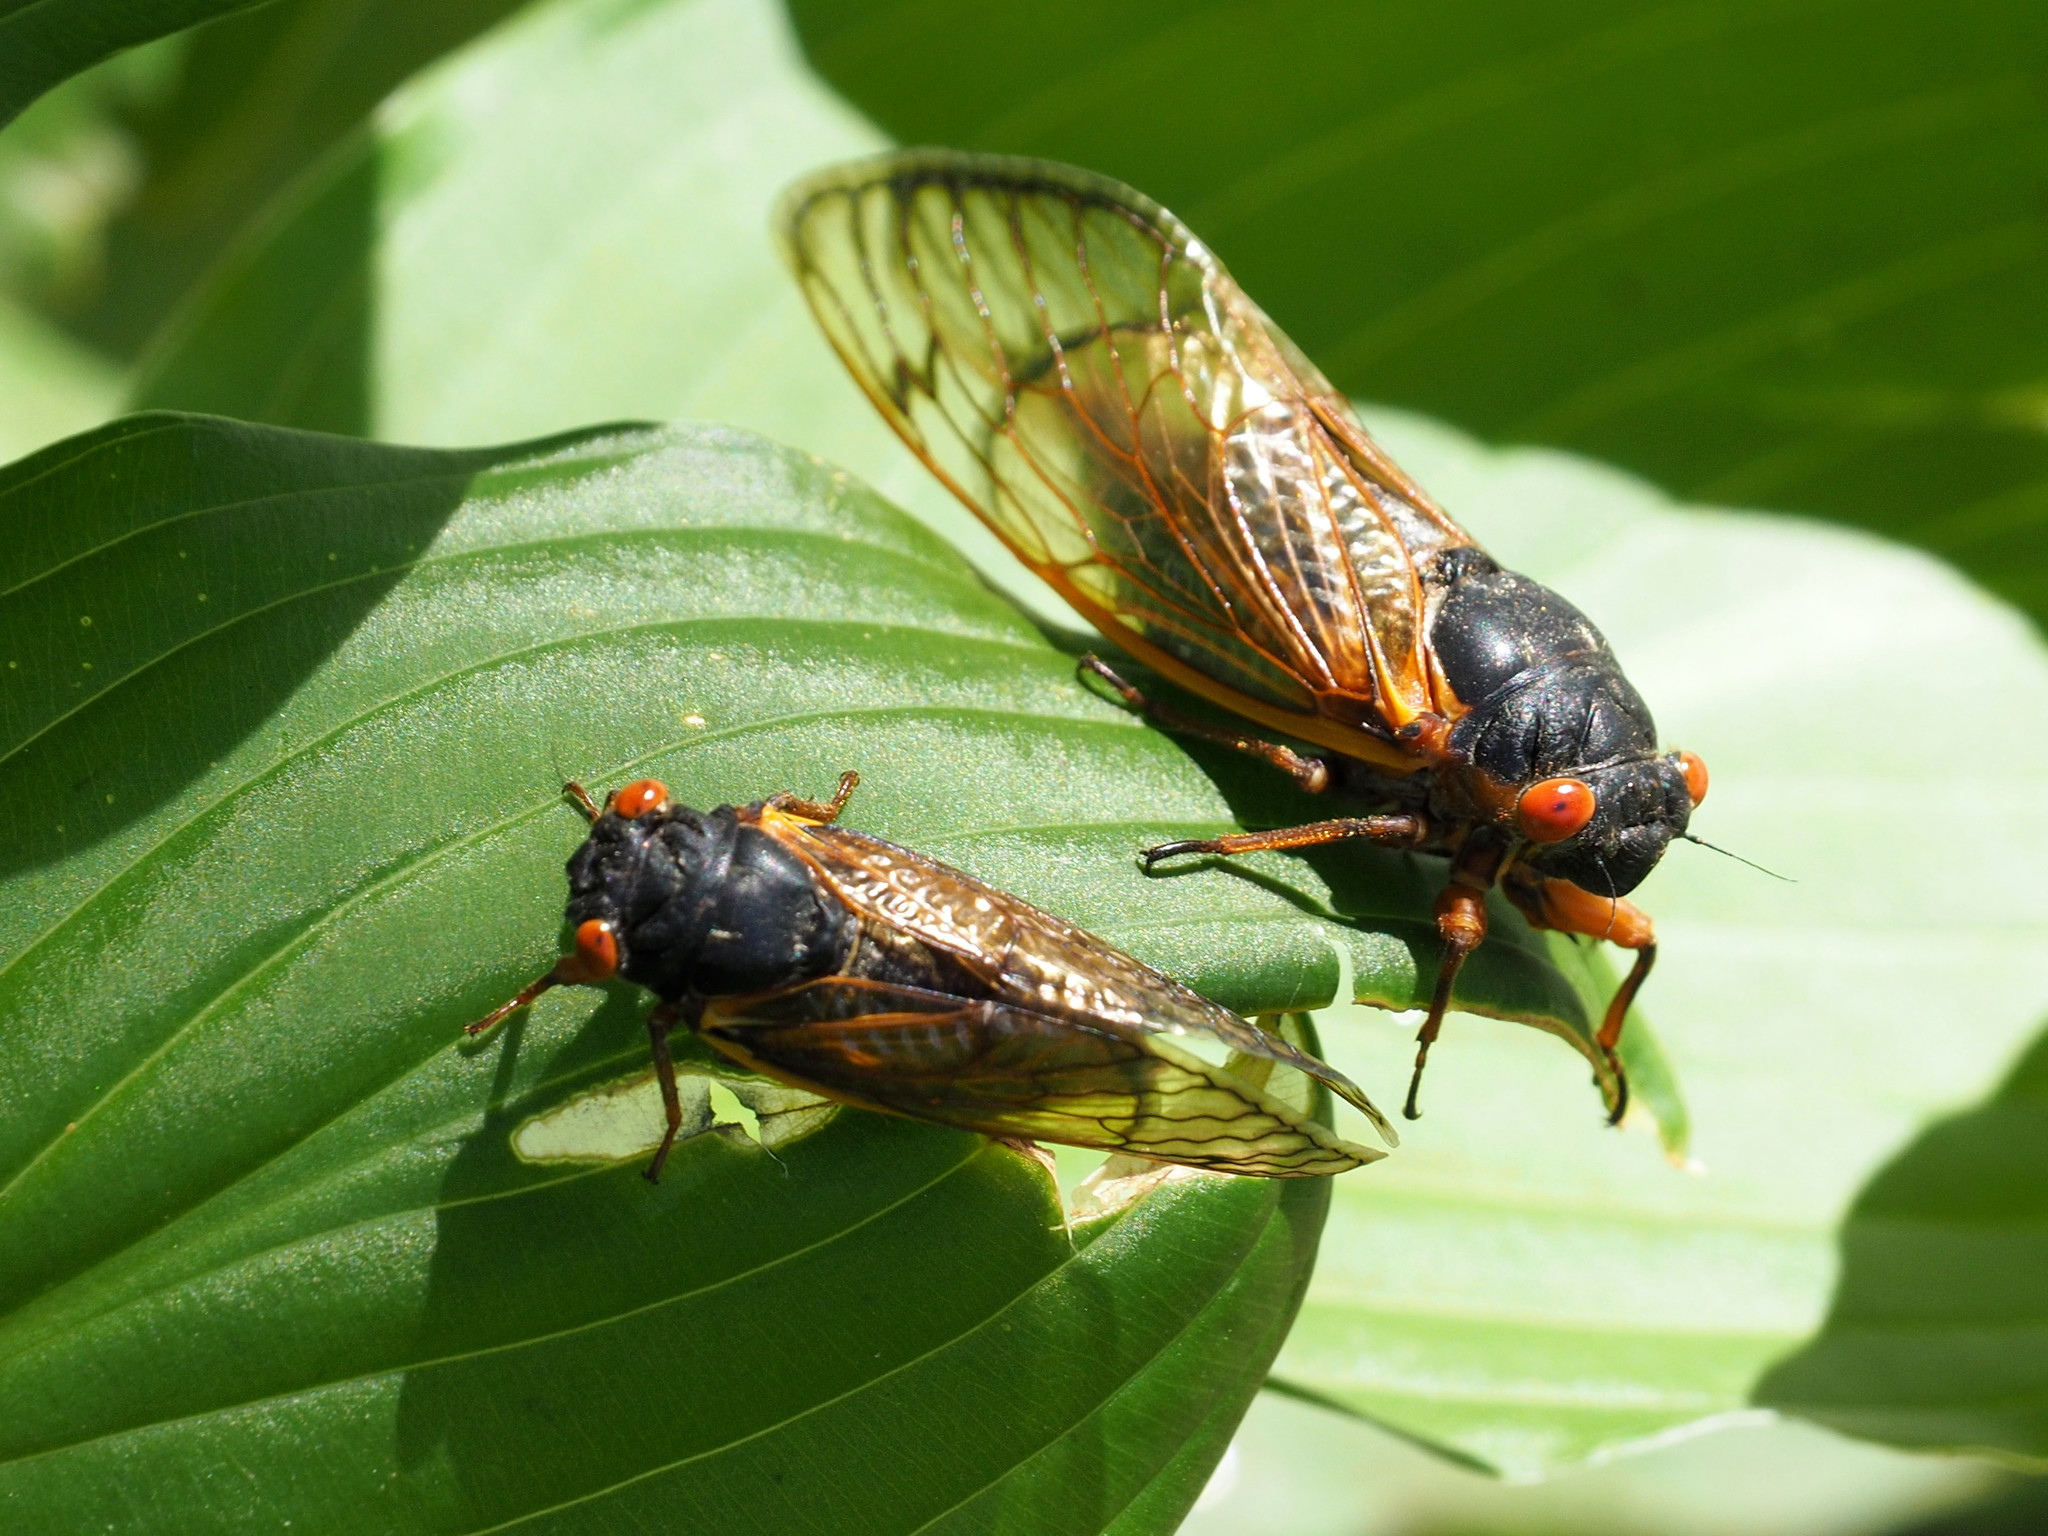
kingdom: Animalia
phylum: Arthropoda
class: Insecta
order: Hemiptera
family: Cicadidae
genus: Magicicada
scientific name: Magicicada septendecim
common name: Periodical cicada
